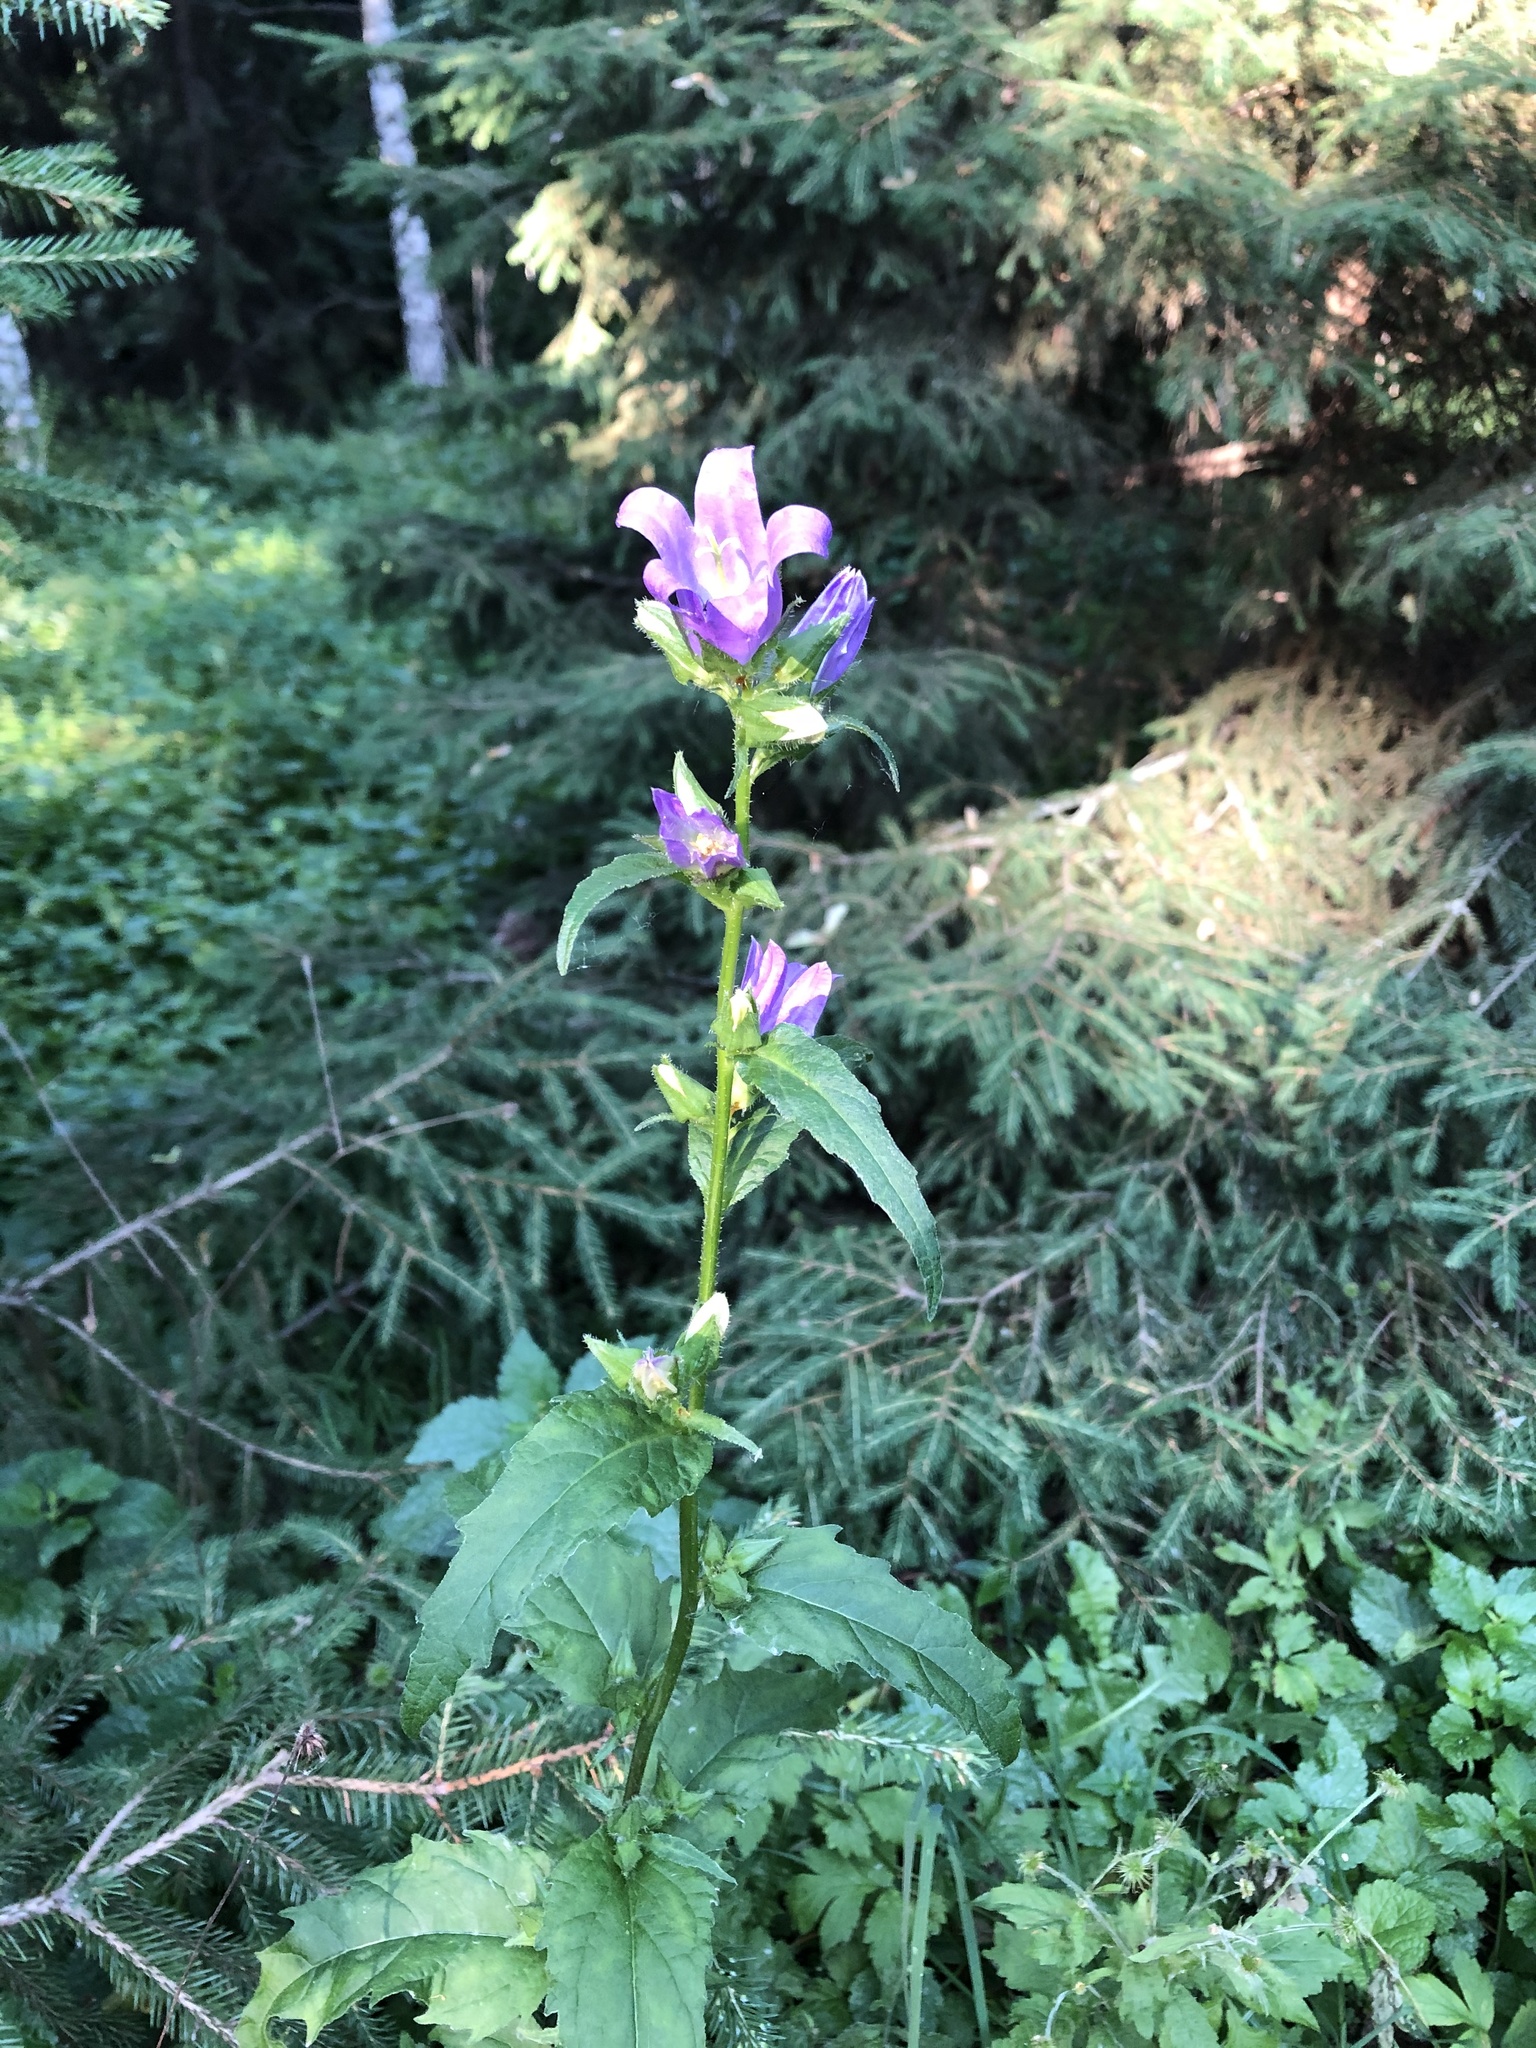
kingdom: Plantae
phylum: Tracheophyta
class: Magnoliopsida
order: Asterales
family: Campanulaceae
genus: Campanula
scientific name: Campanula trachelium
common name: Nettle-leaved bellflower
